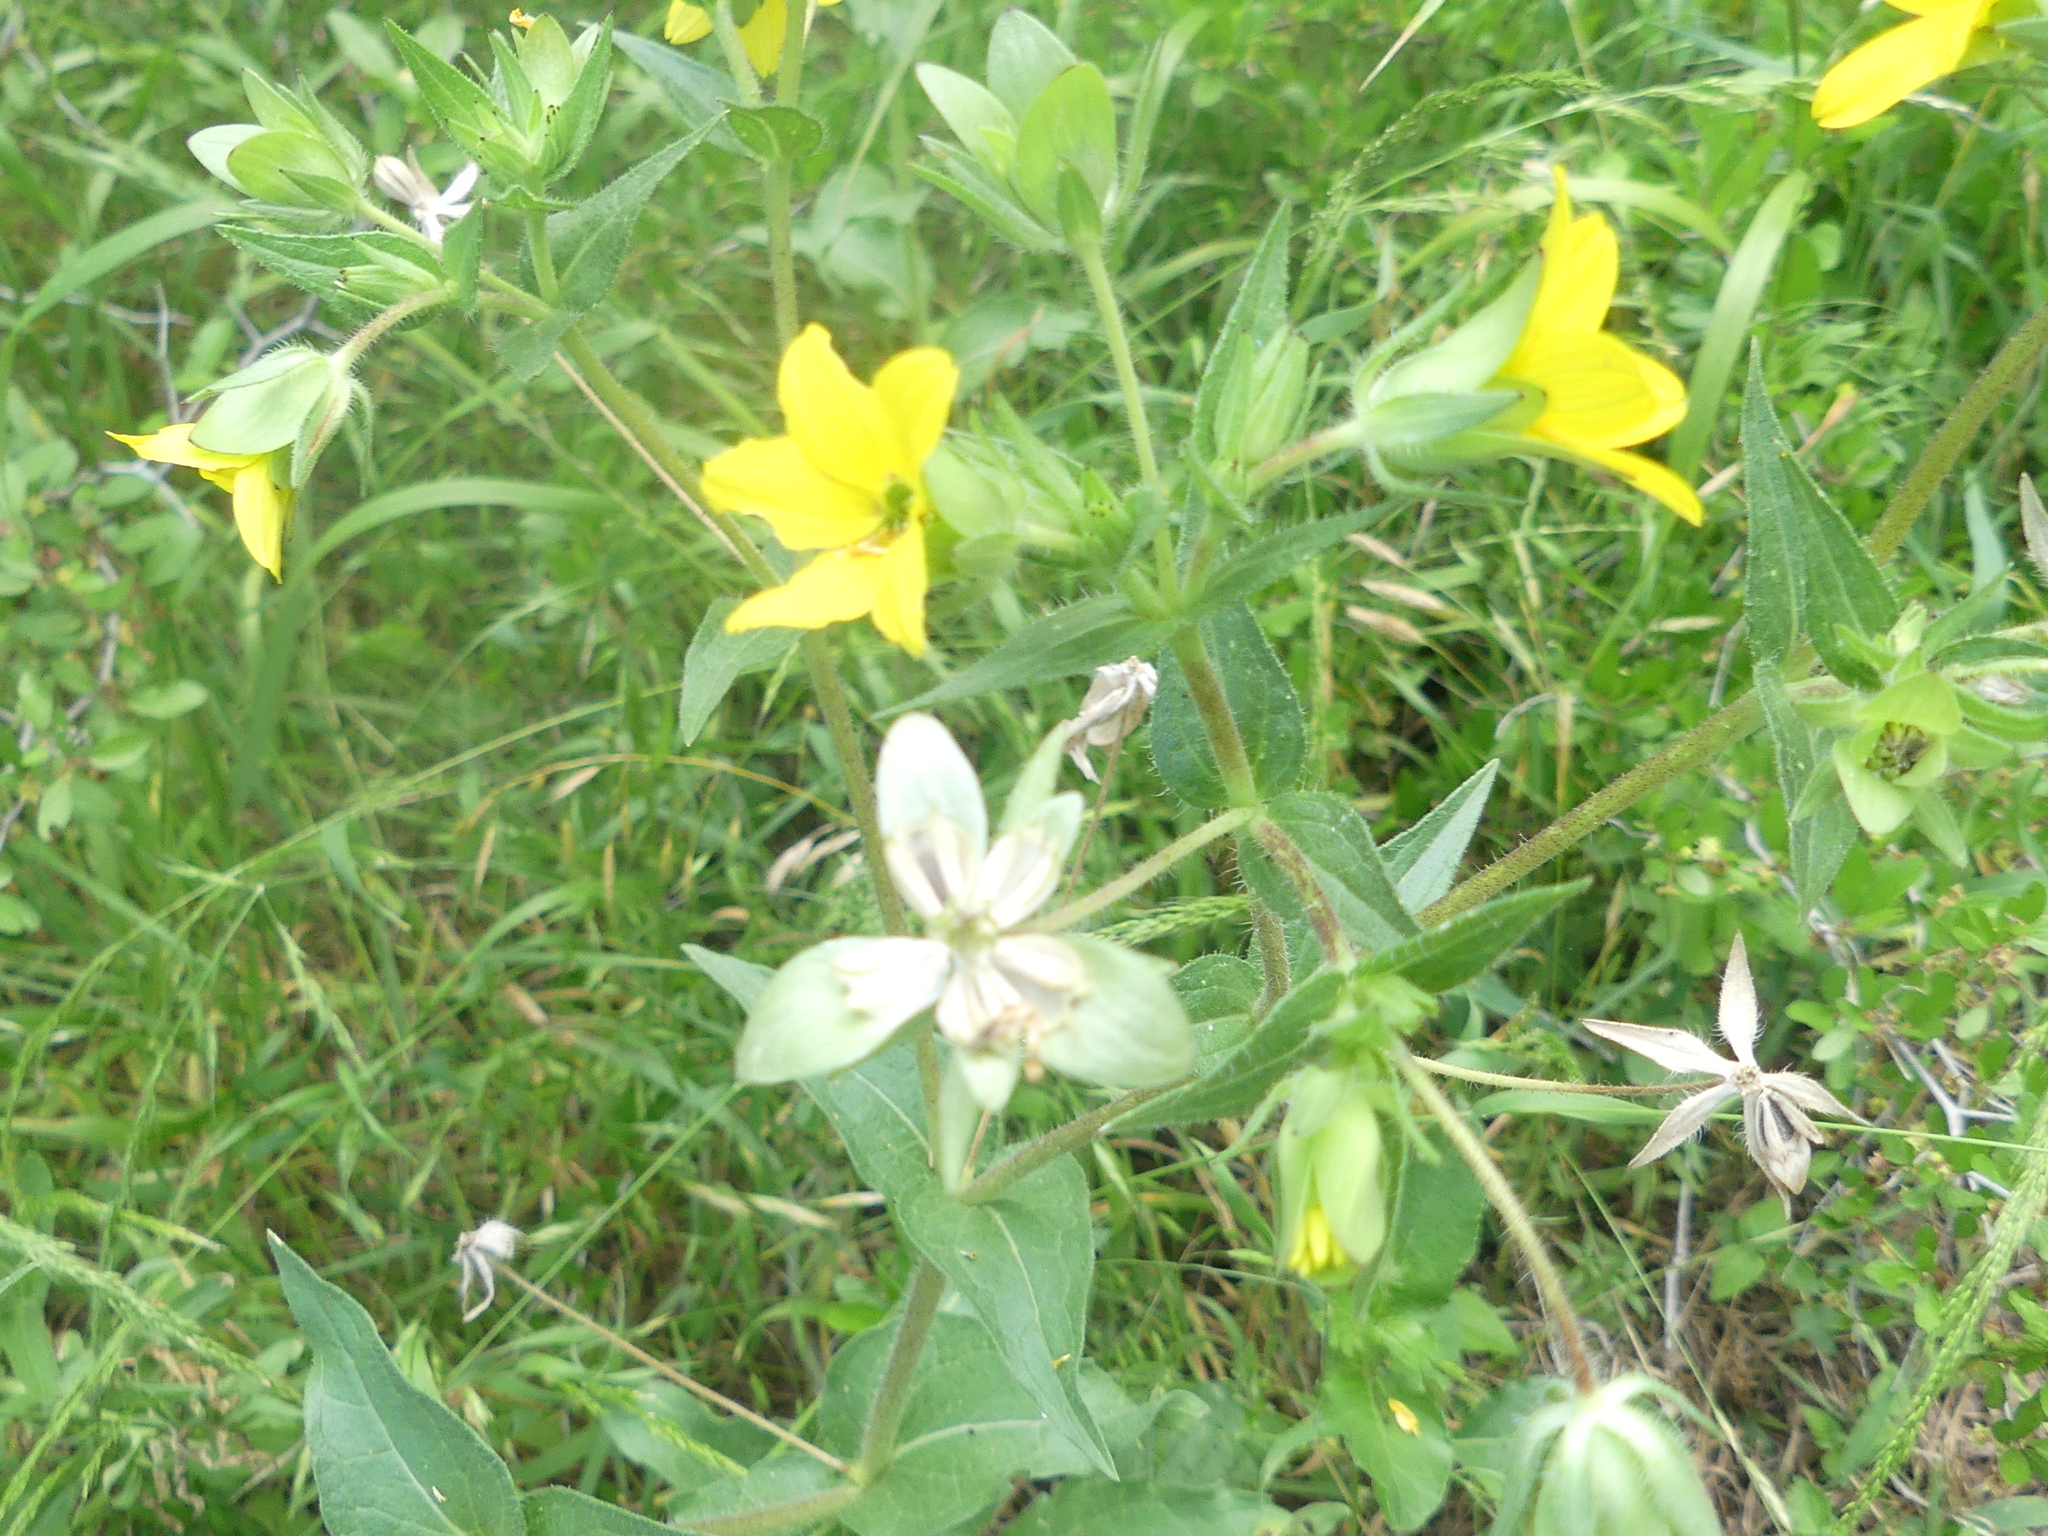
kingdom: Plantae
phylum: Tracheophyta
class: Magnoliopsida
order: Asterales
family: Asteraceae
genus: Lindheimera
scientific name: Lindheimera texana
